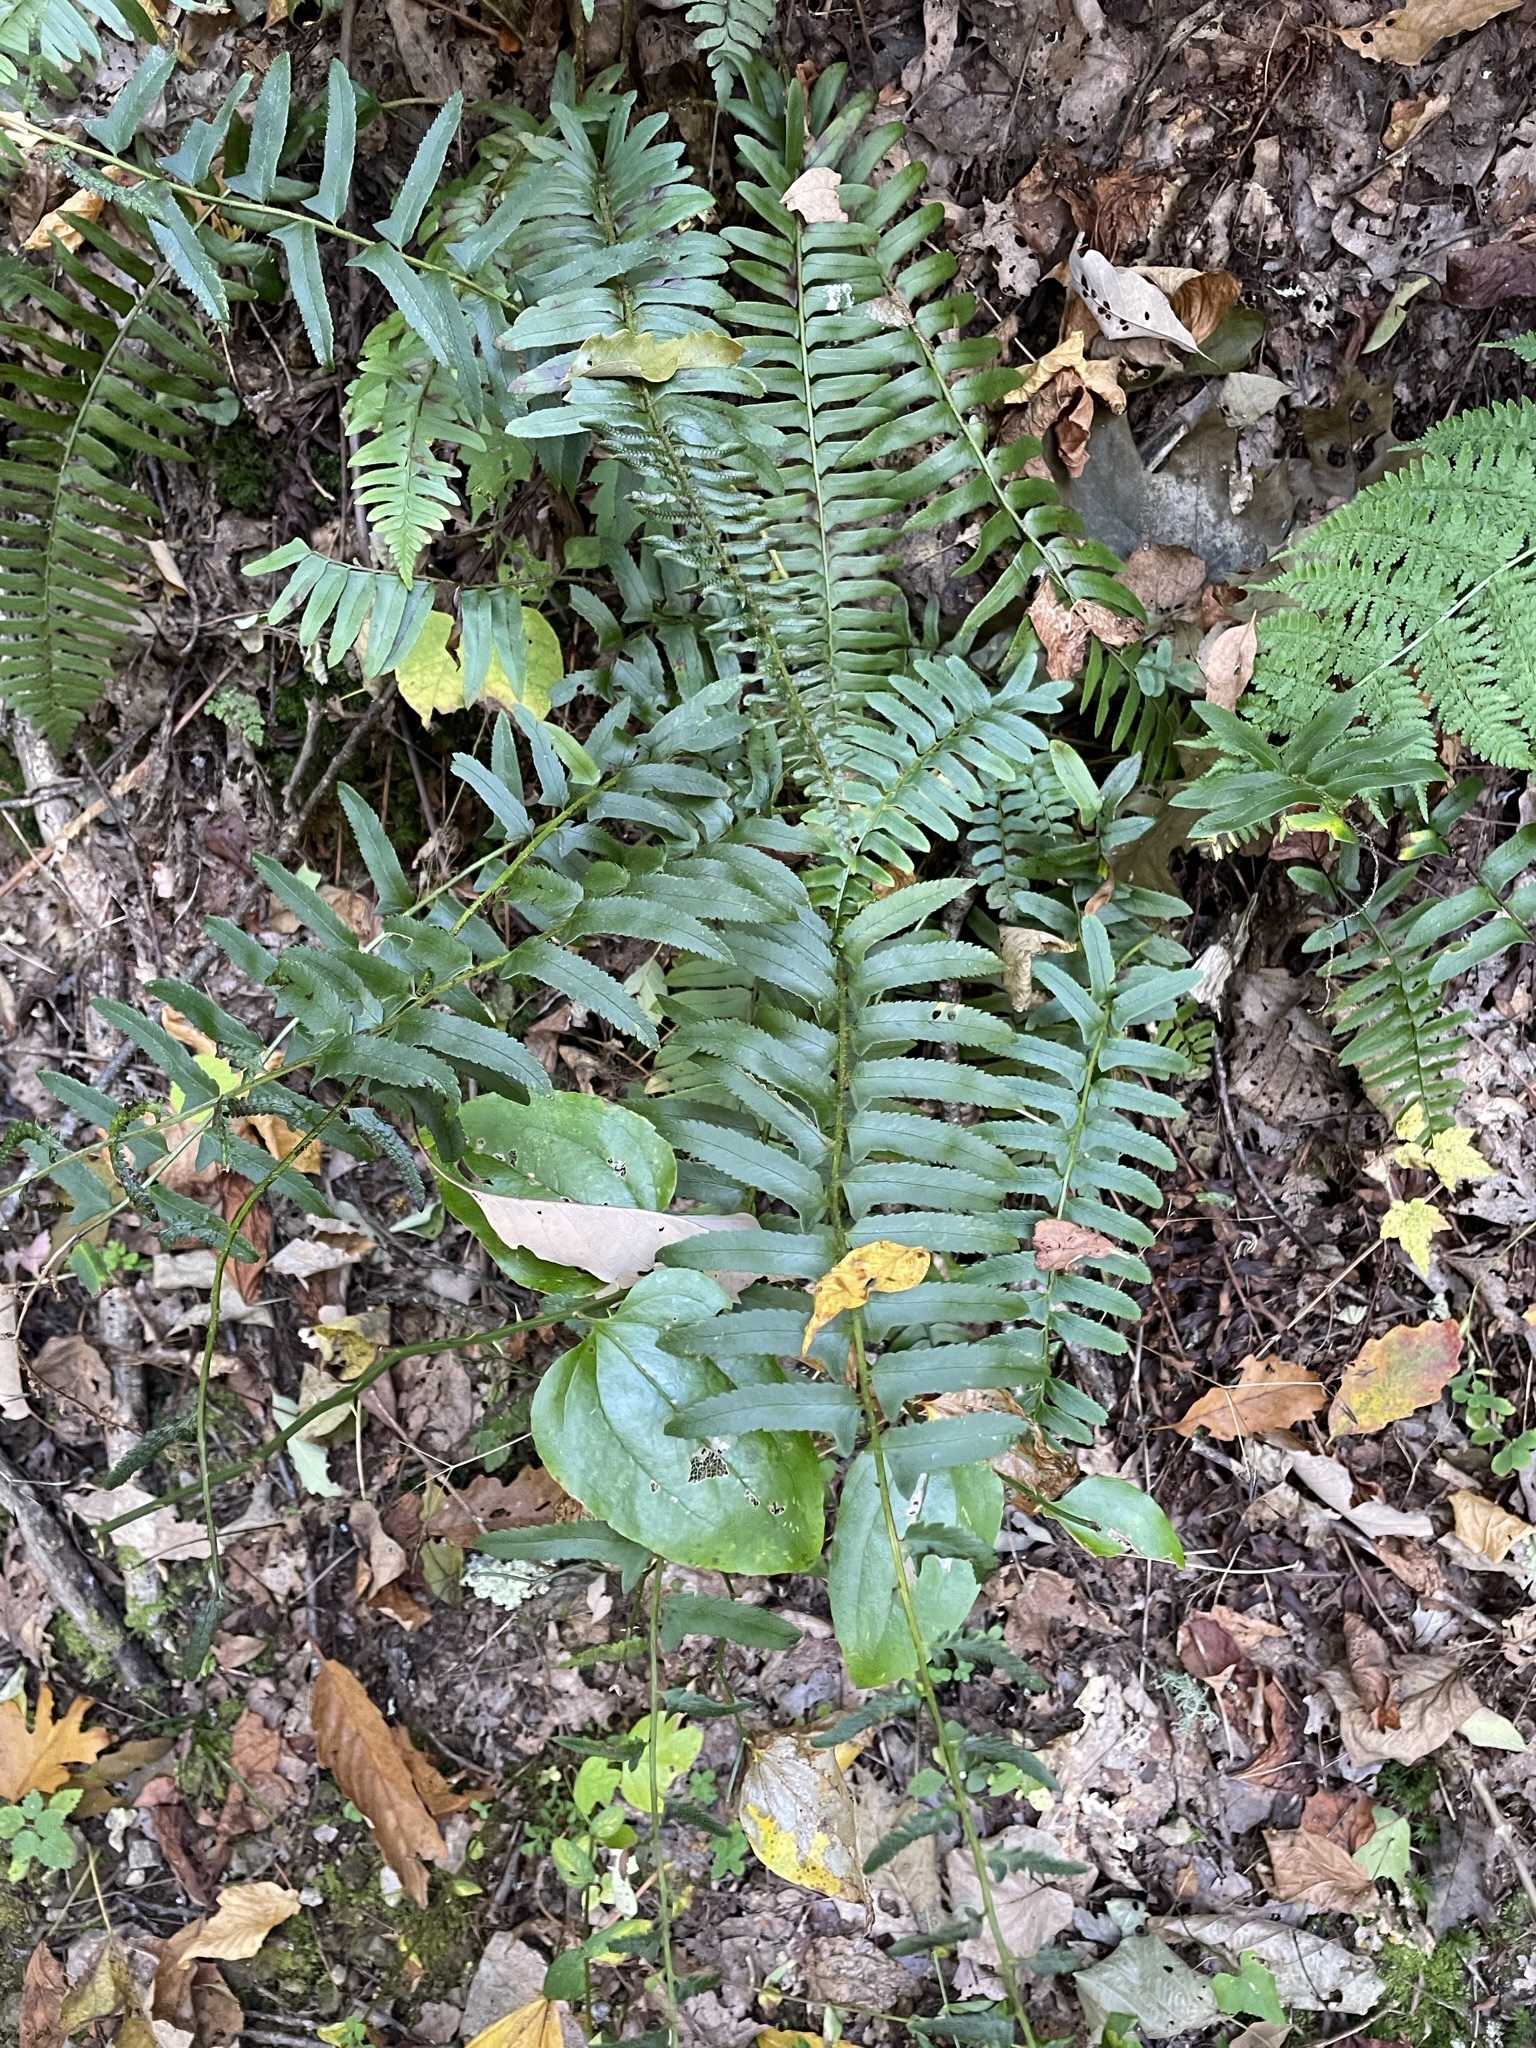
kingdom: Plantae
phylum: Tracheophyta
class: Polypodiopsida
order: Polypodiales
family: Dryopteridaceae
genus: Polystichum
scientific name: Polystichum acrostichoides
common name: Christmas fern
